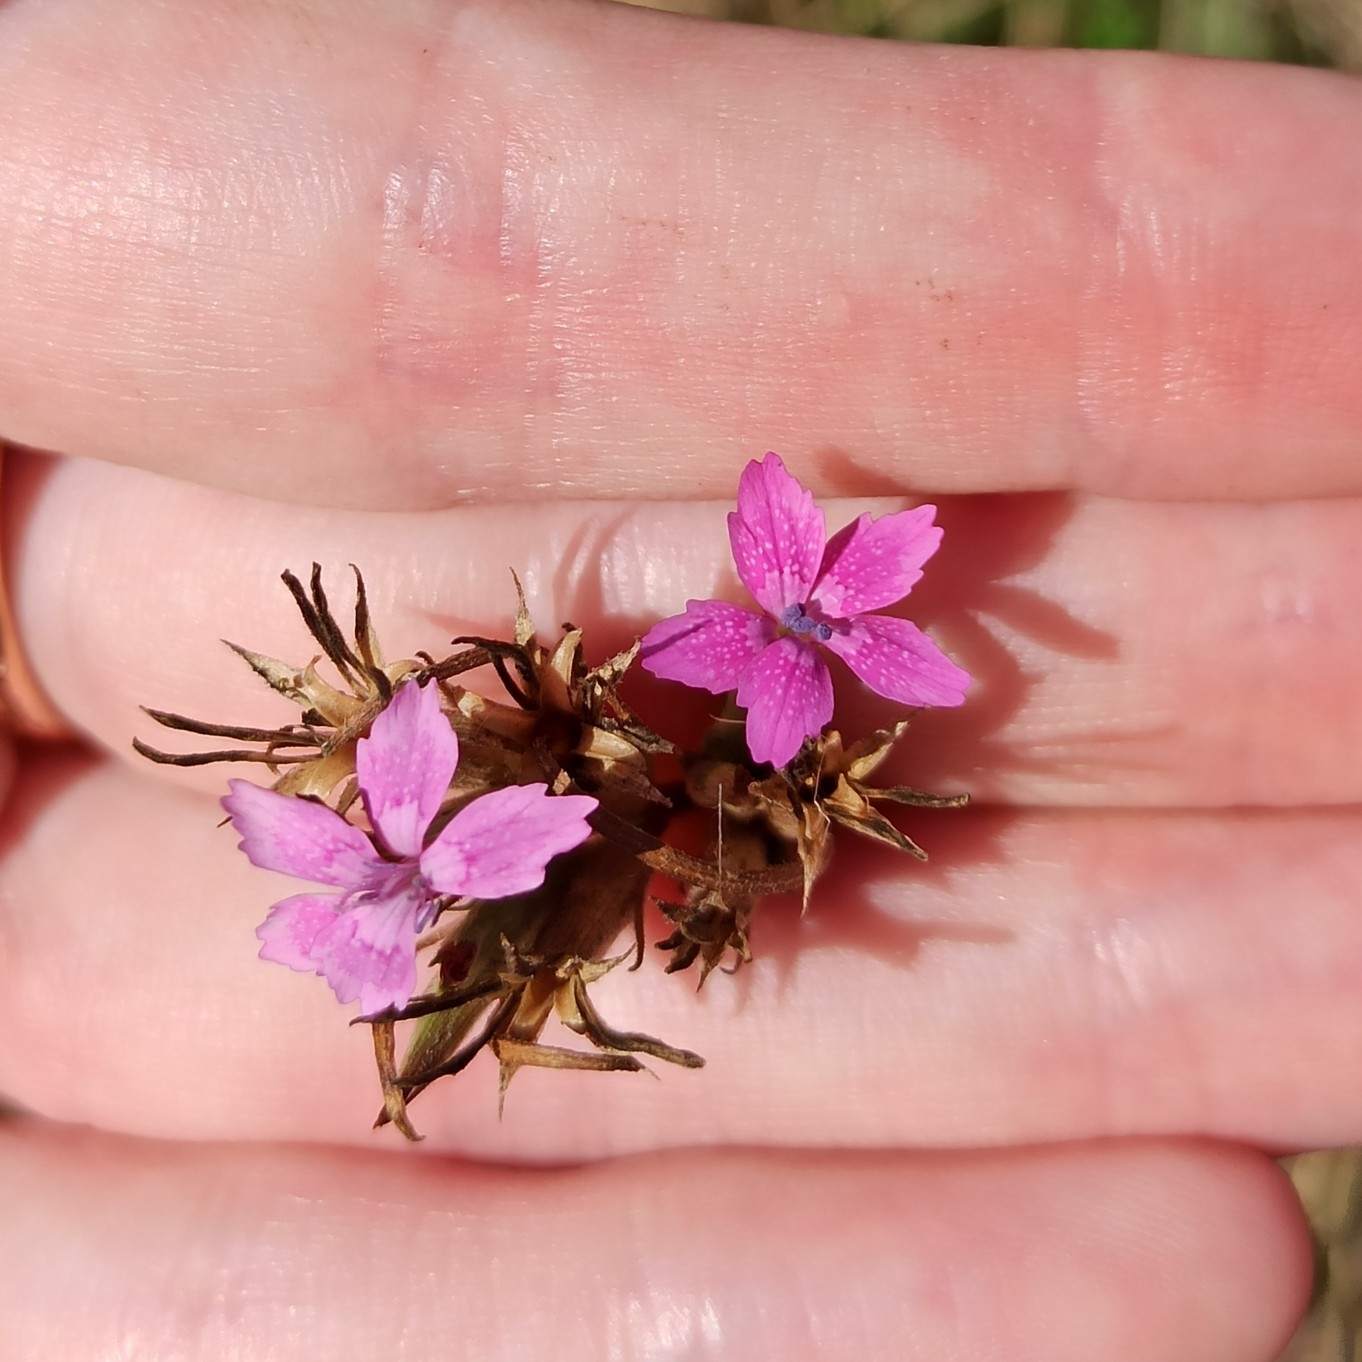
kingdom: Plantae
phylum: Tracheophyta
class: Magnoliopsida
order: Caryophyllales
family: Caryophyllaceae
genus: Dianthus
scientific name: Dianthus armeria
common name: Deptford pink
